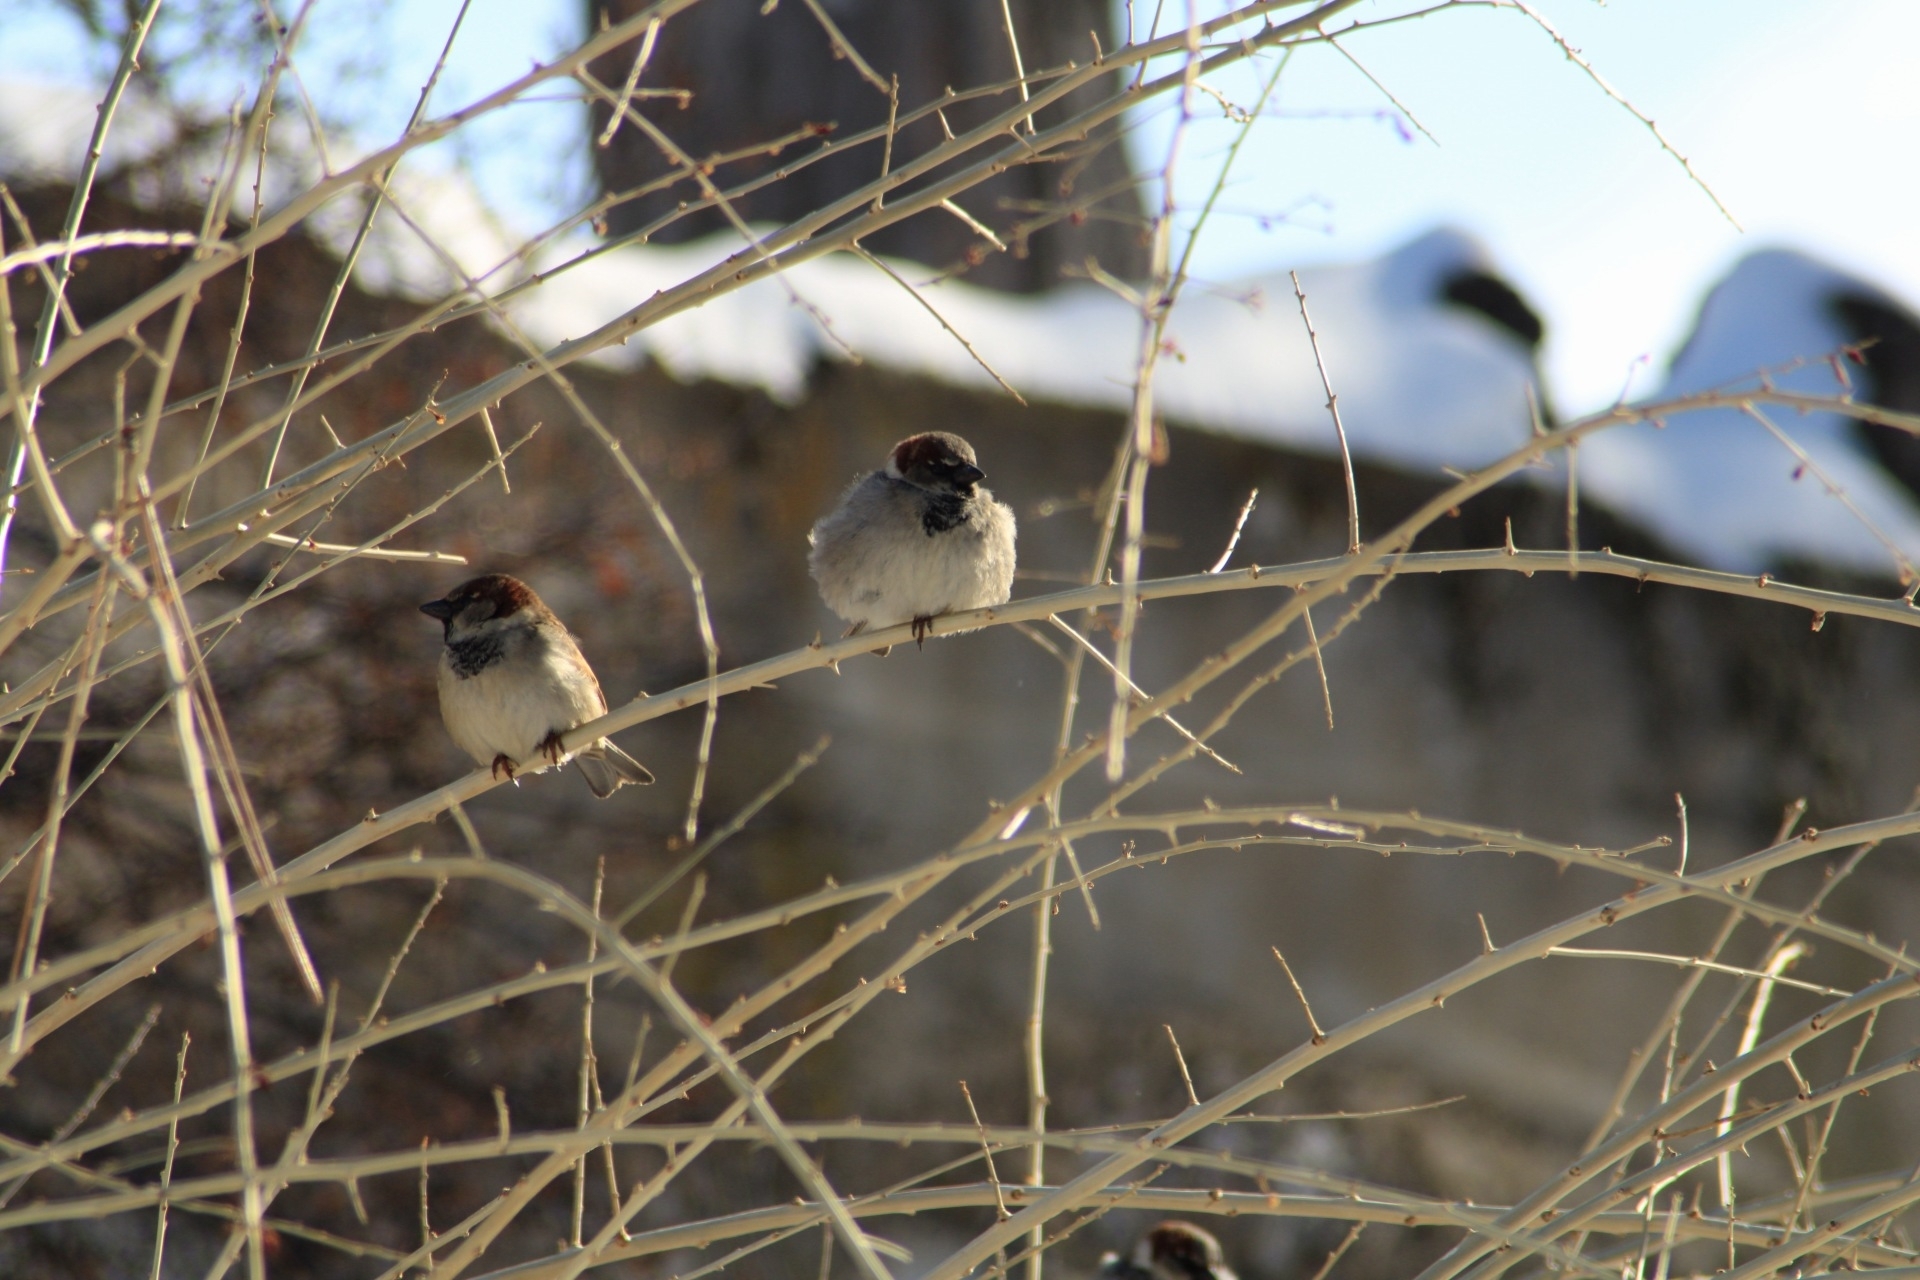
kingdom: Animalia
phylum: Chordata
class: Aves
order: Passeriformes
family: Passeridae
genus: Passer
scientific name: Passer domesticus
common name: House sparrow
